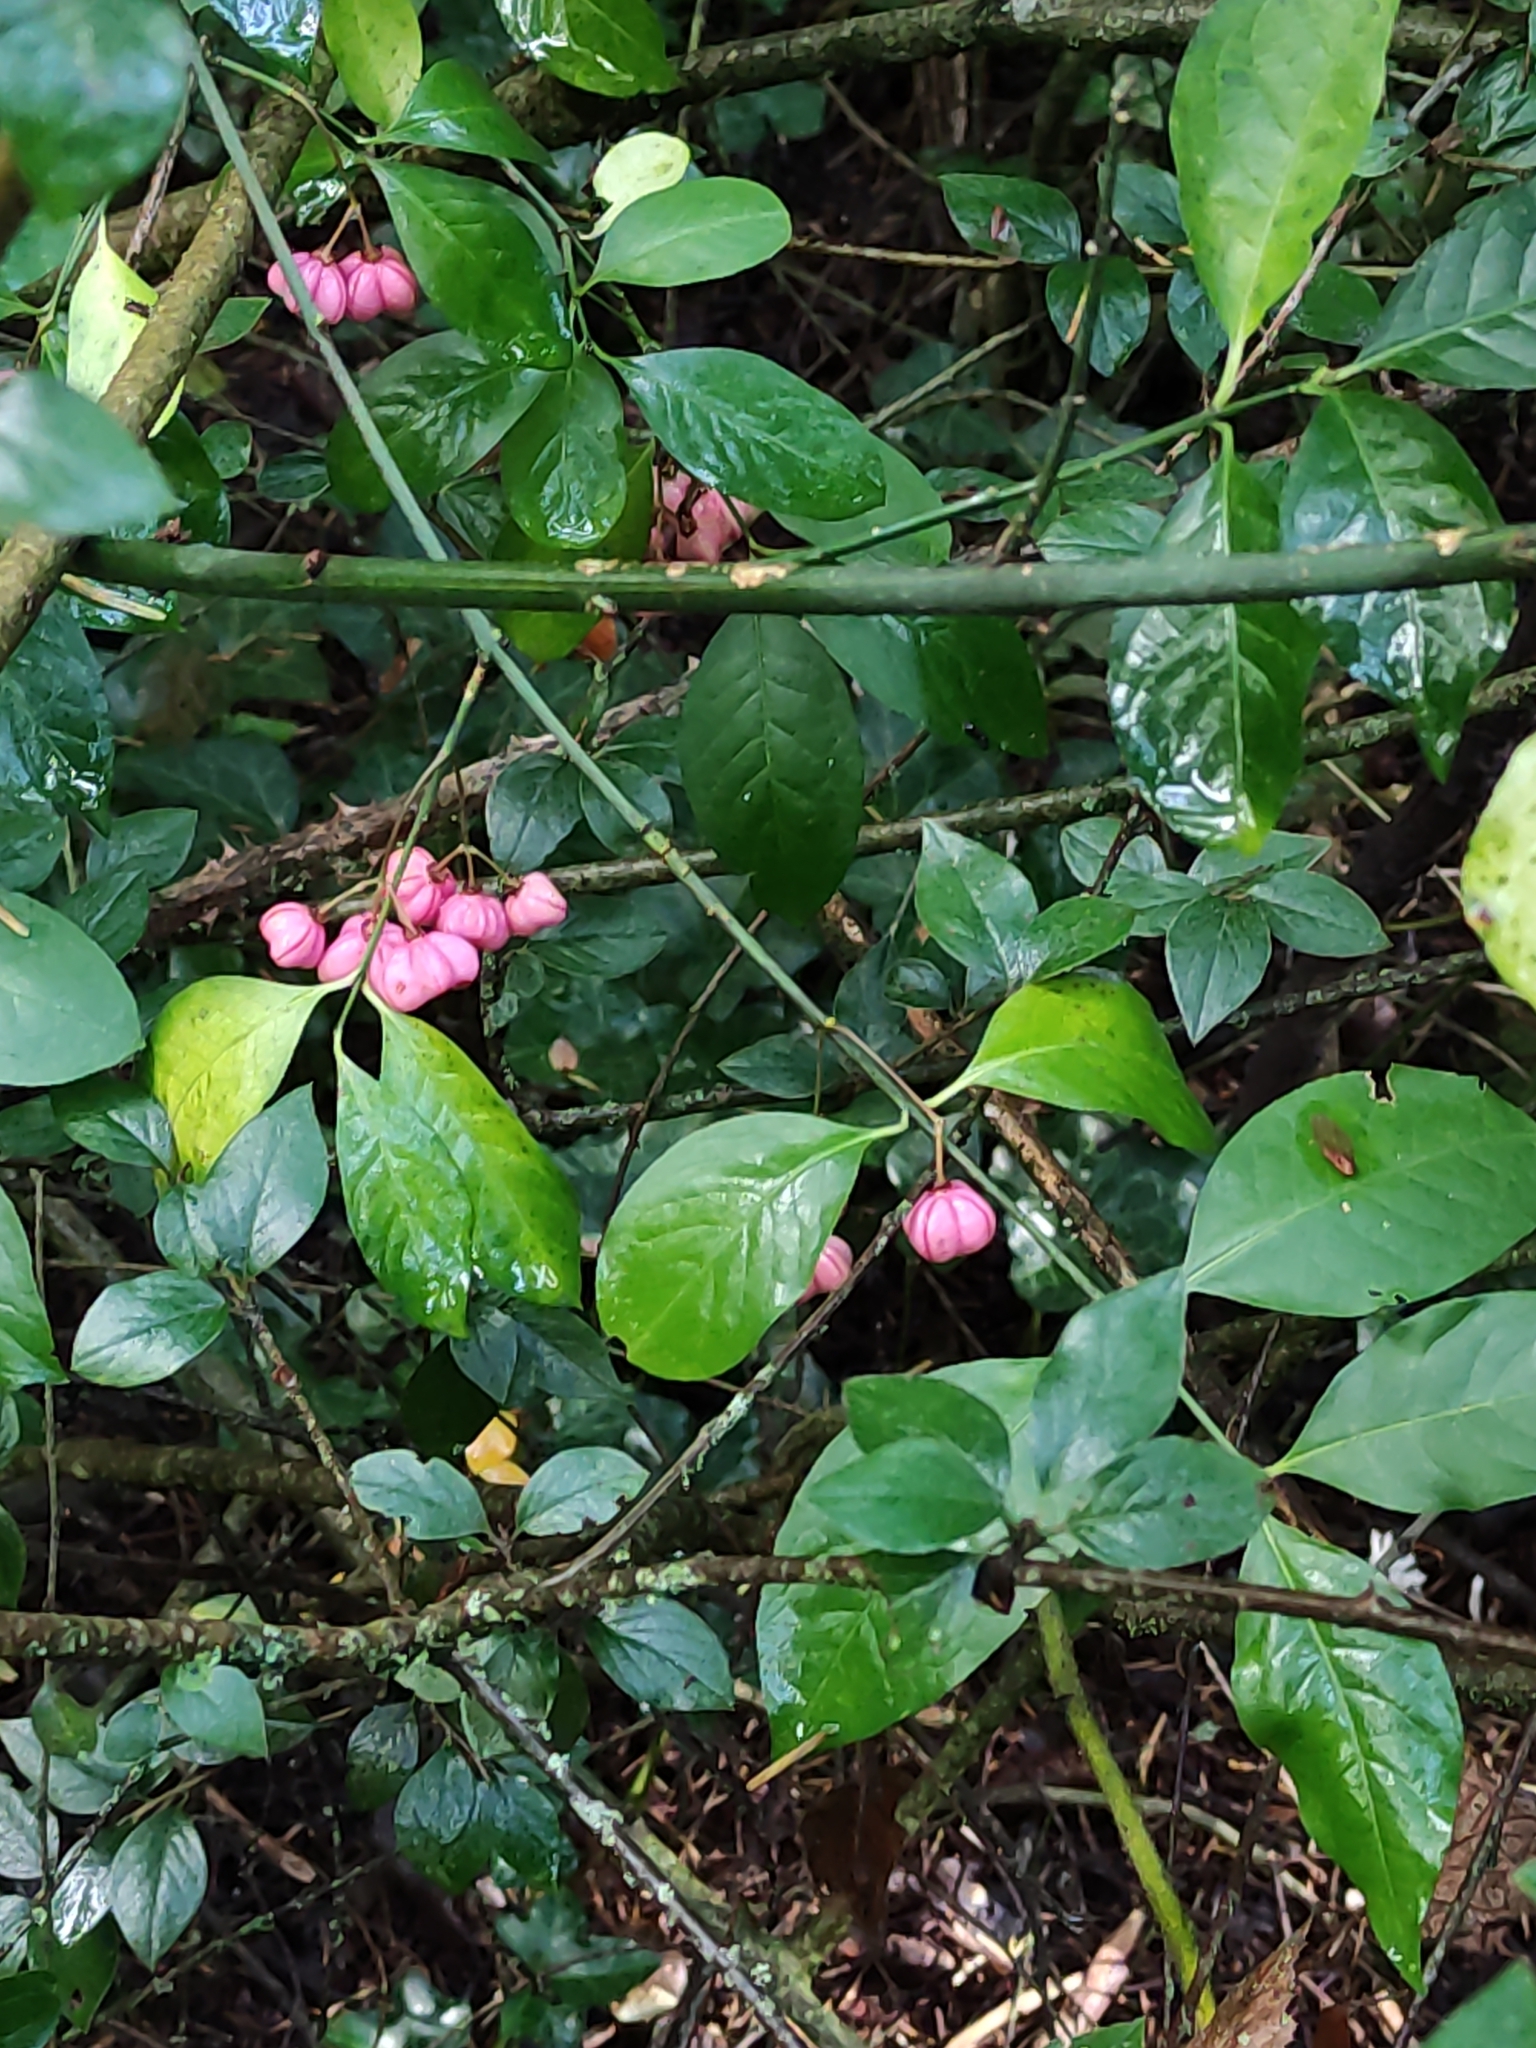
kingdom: Plantae
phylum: Tracheophyta
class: Magnoliopsida
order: Celastrales
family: Celastraceae
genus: Euonymus
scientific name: Euonymus europaeus
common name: Spindle
